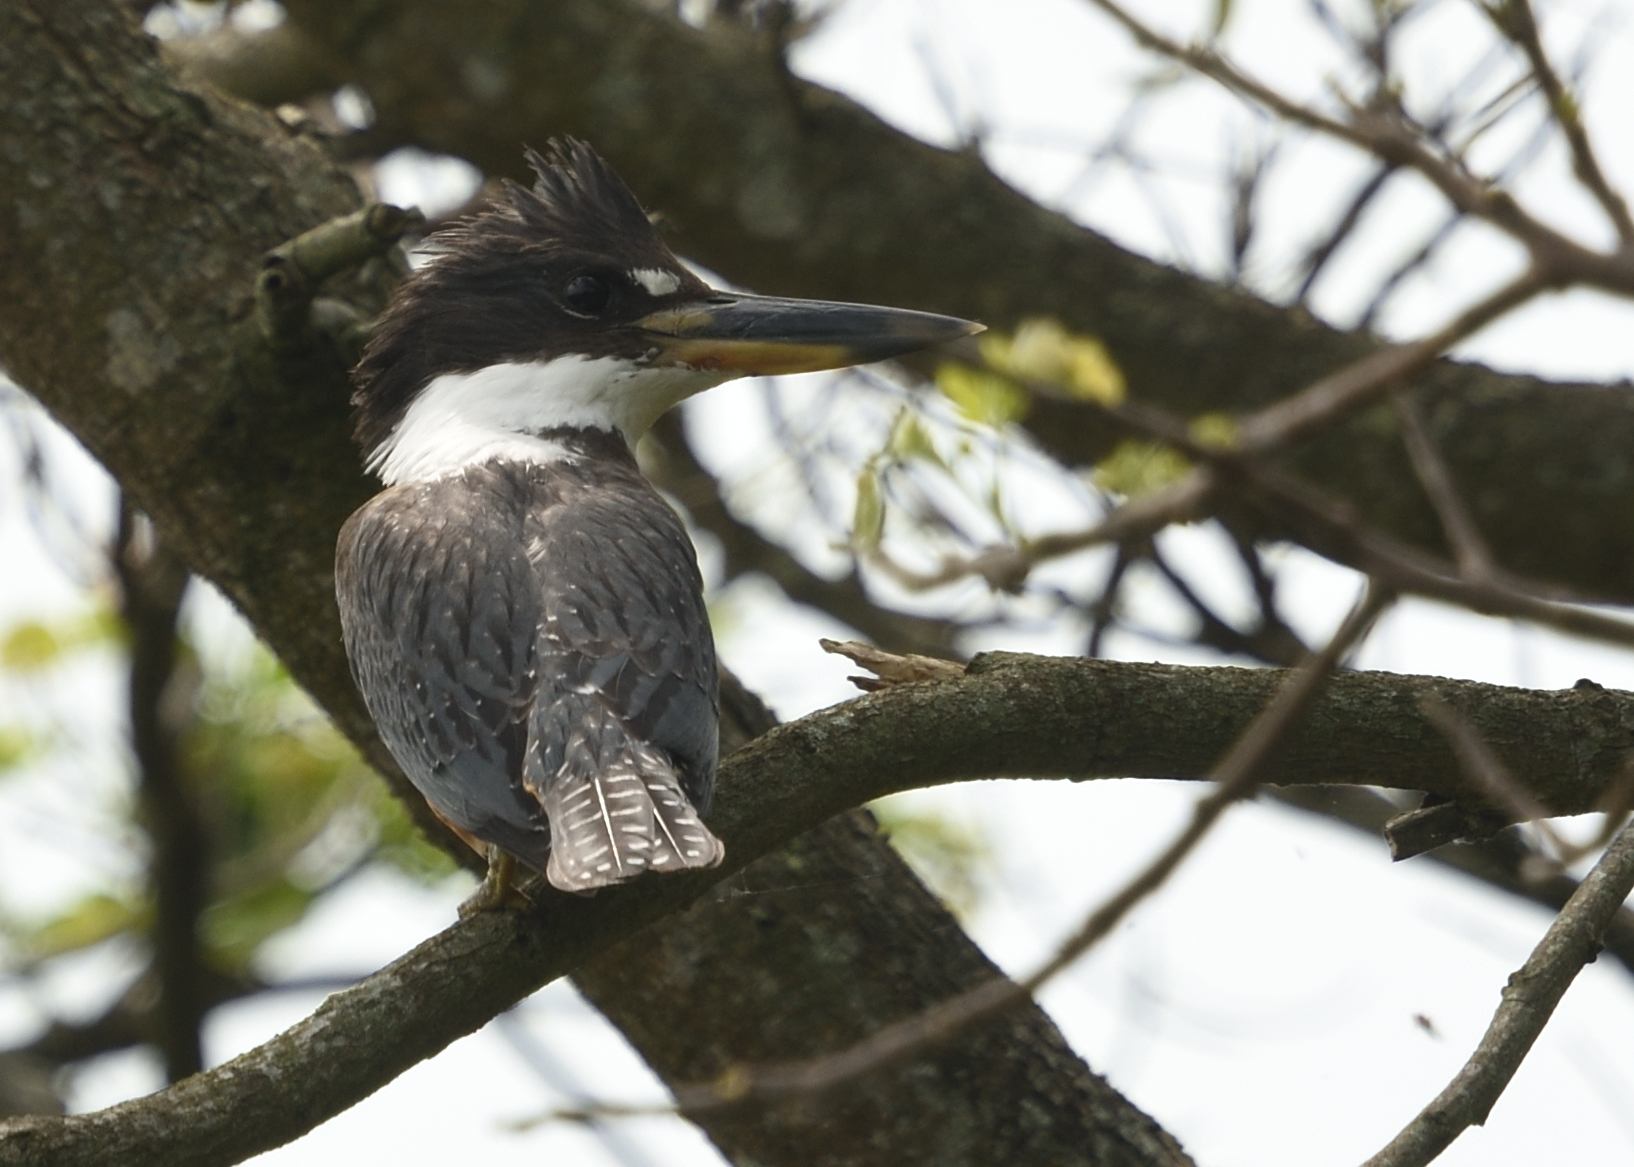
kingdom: Animalia
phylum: Chordata
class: Aves
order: Coraciiformes
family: Alcedinidae
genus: Megaceryle
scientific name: Megaceryle torquata
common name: Ringed kingfisher
